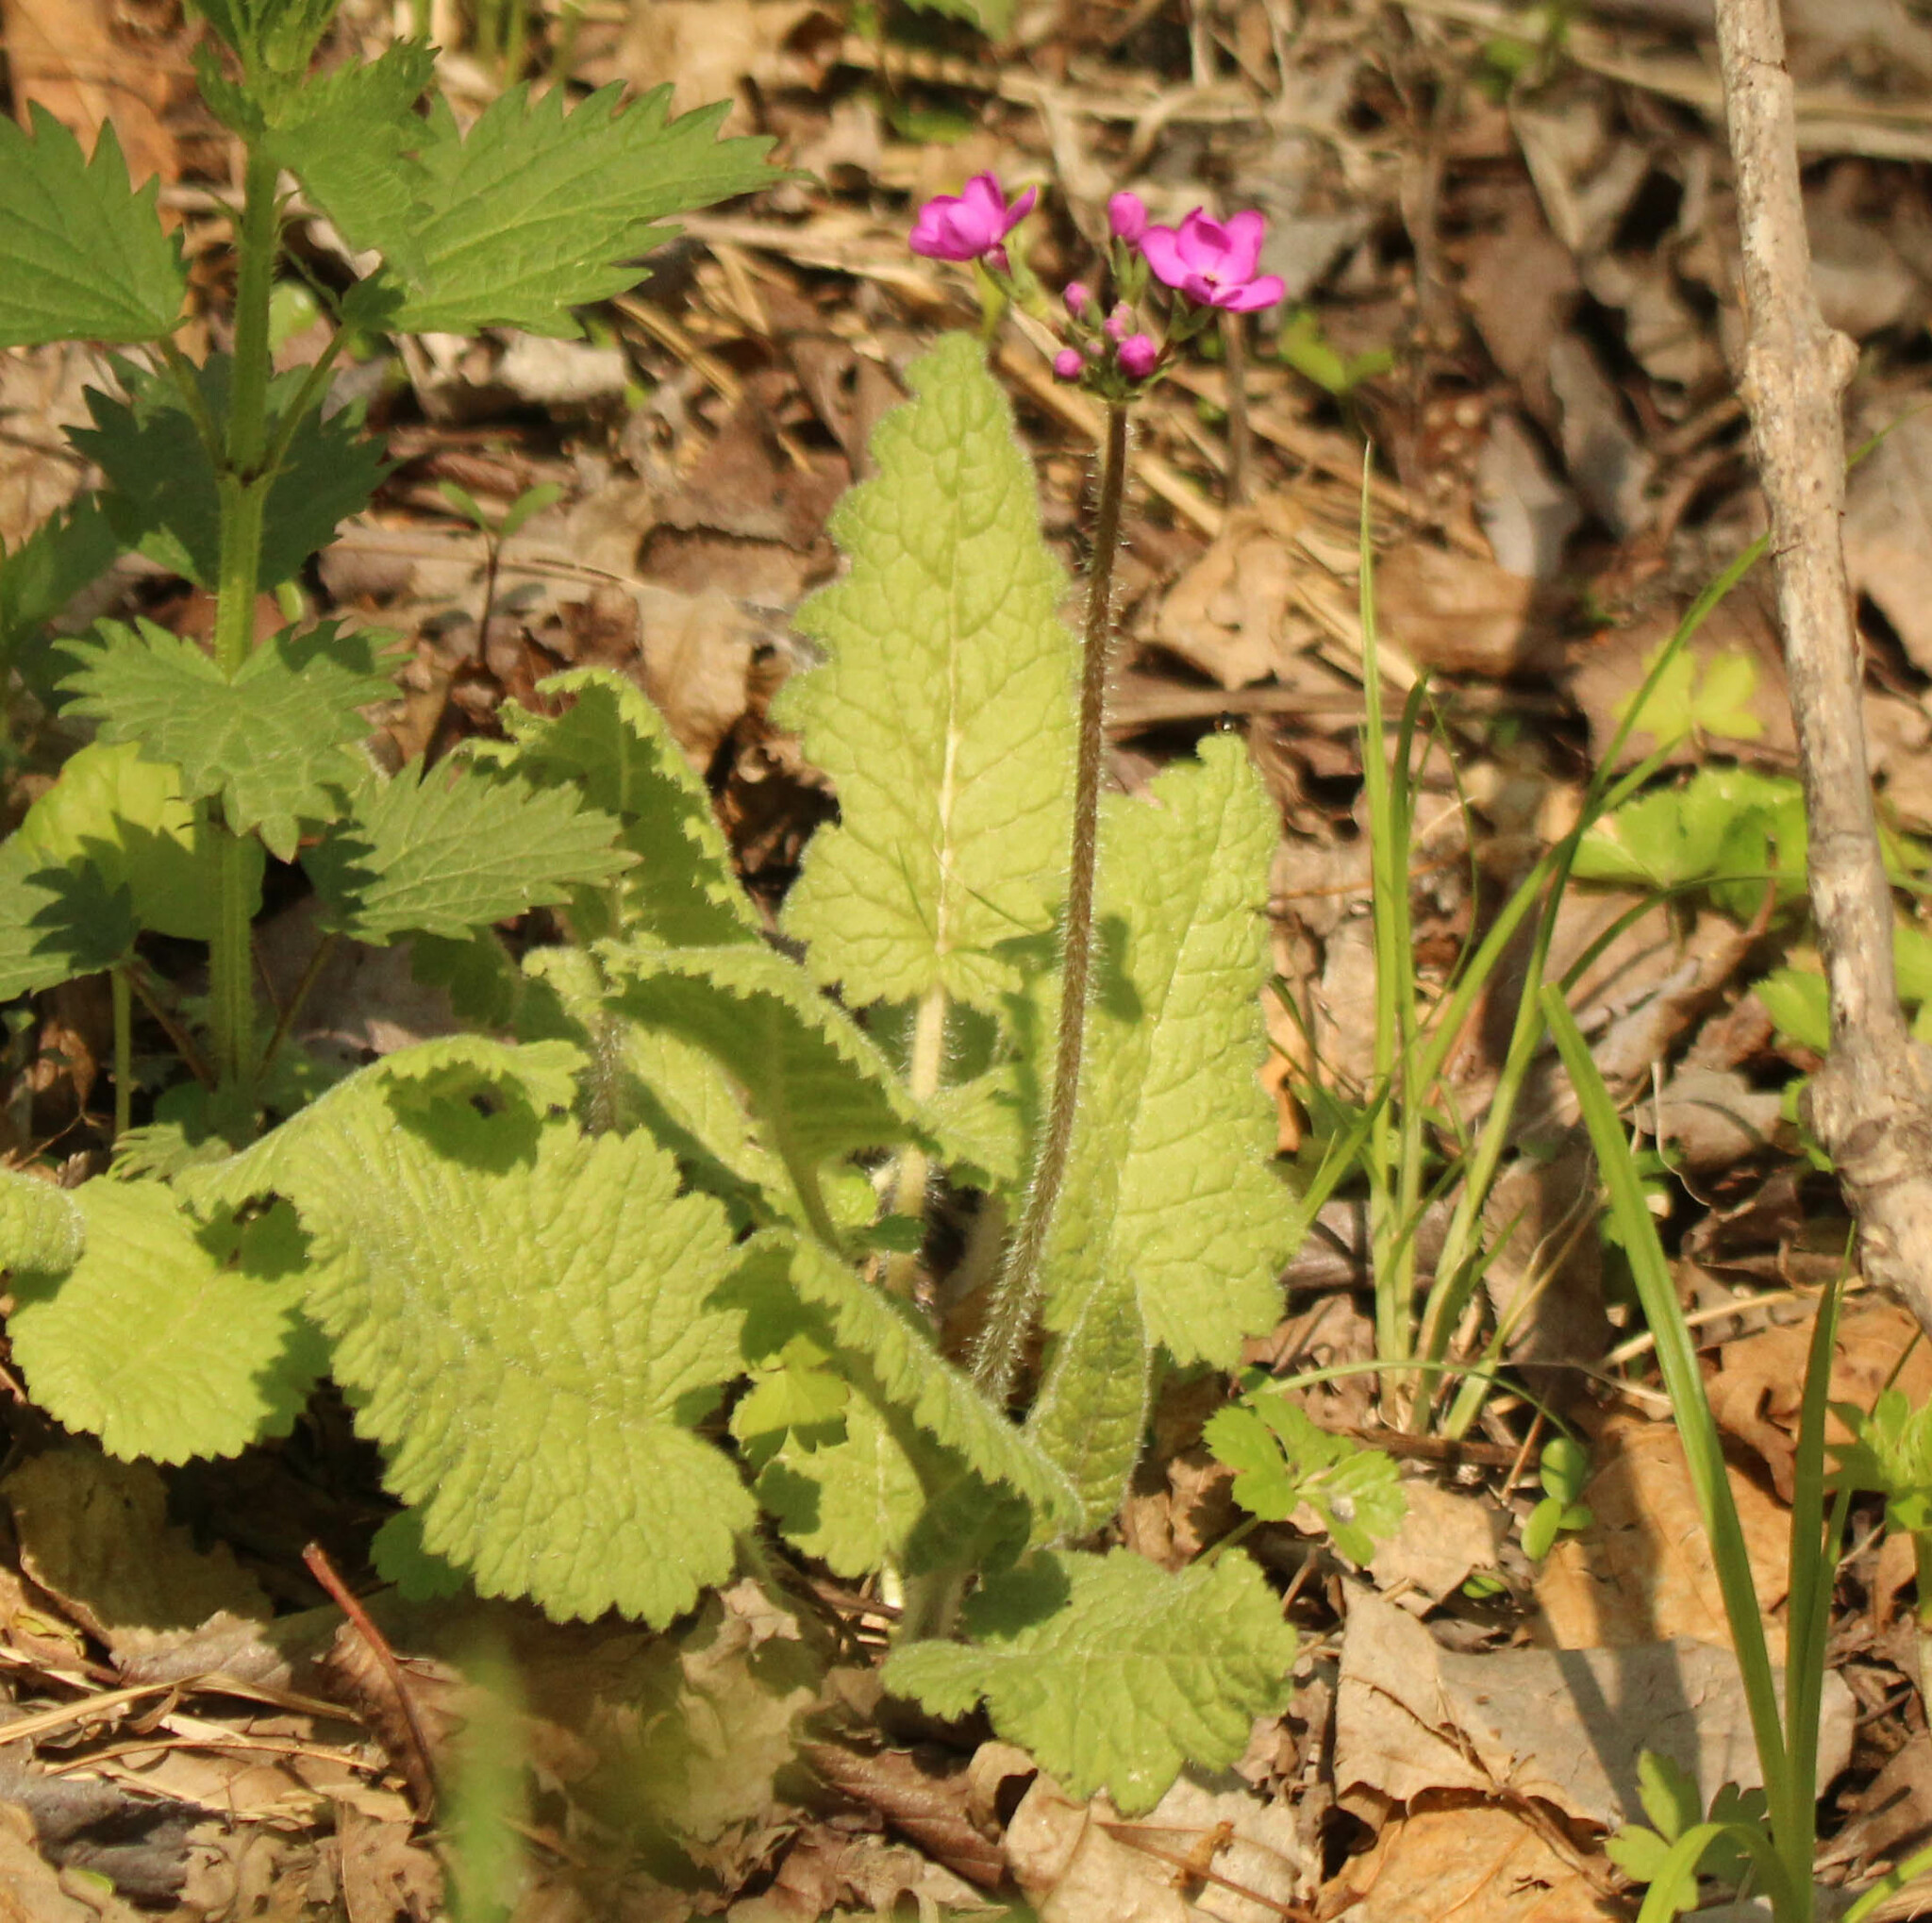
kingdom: Plantae
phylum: Tracheophyta
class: Magnoliopsida
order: Ericales
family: Primulaceae
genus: Primula
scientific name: Primula cortusoides
